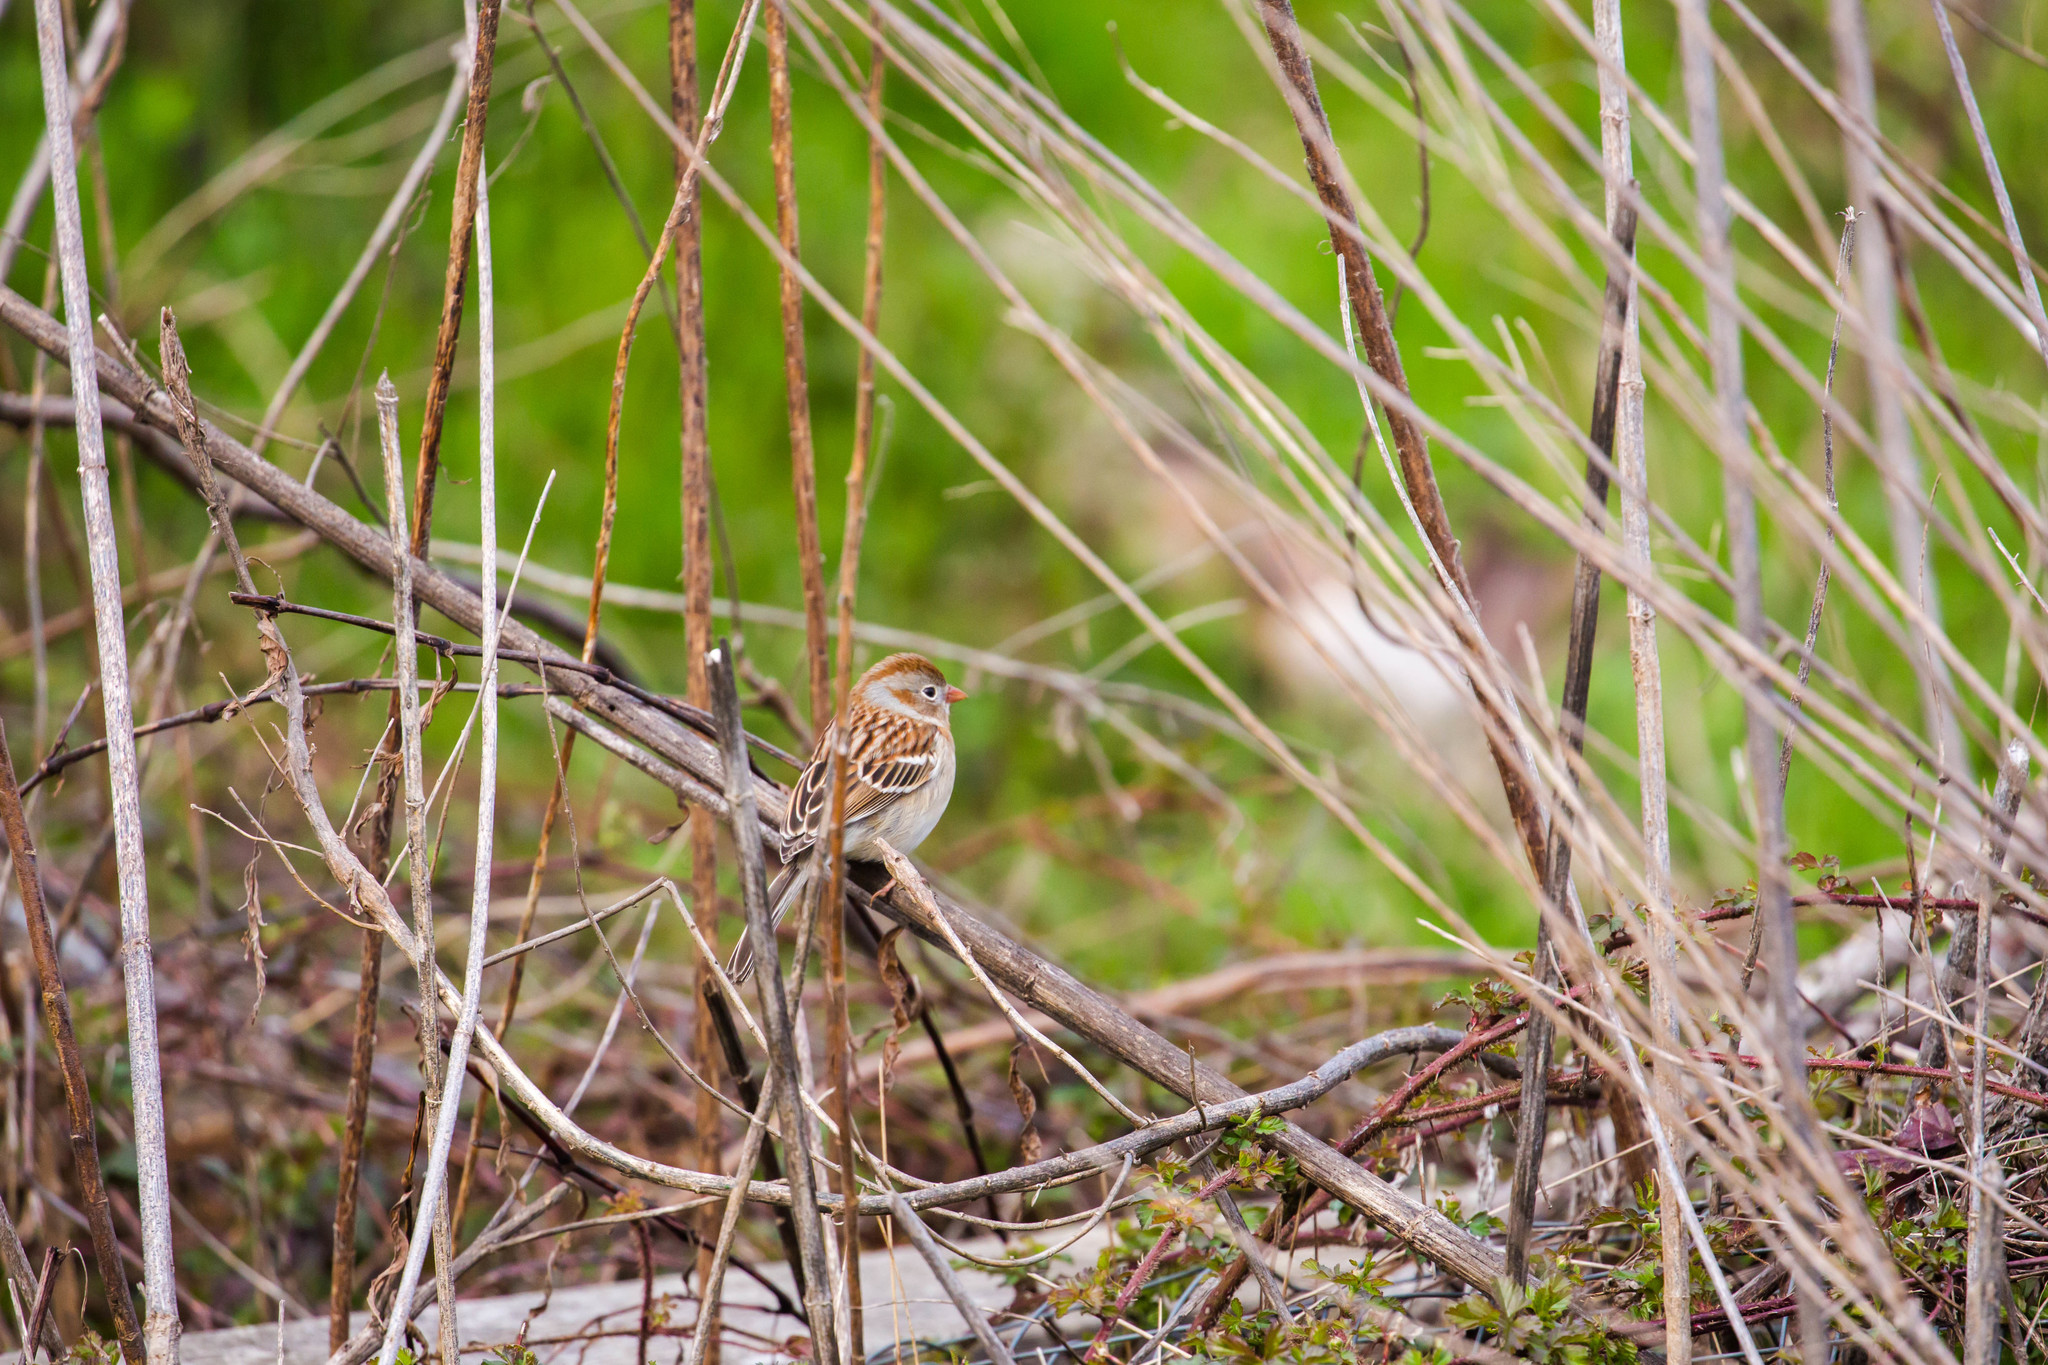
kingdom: Animalia
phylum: Chordata
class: Aves
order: Passeriformes
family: Passerellidae
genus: Spizella
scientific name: Spizella pusilla
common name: Field sparrow
